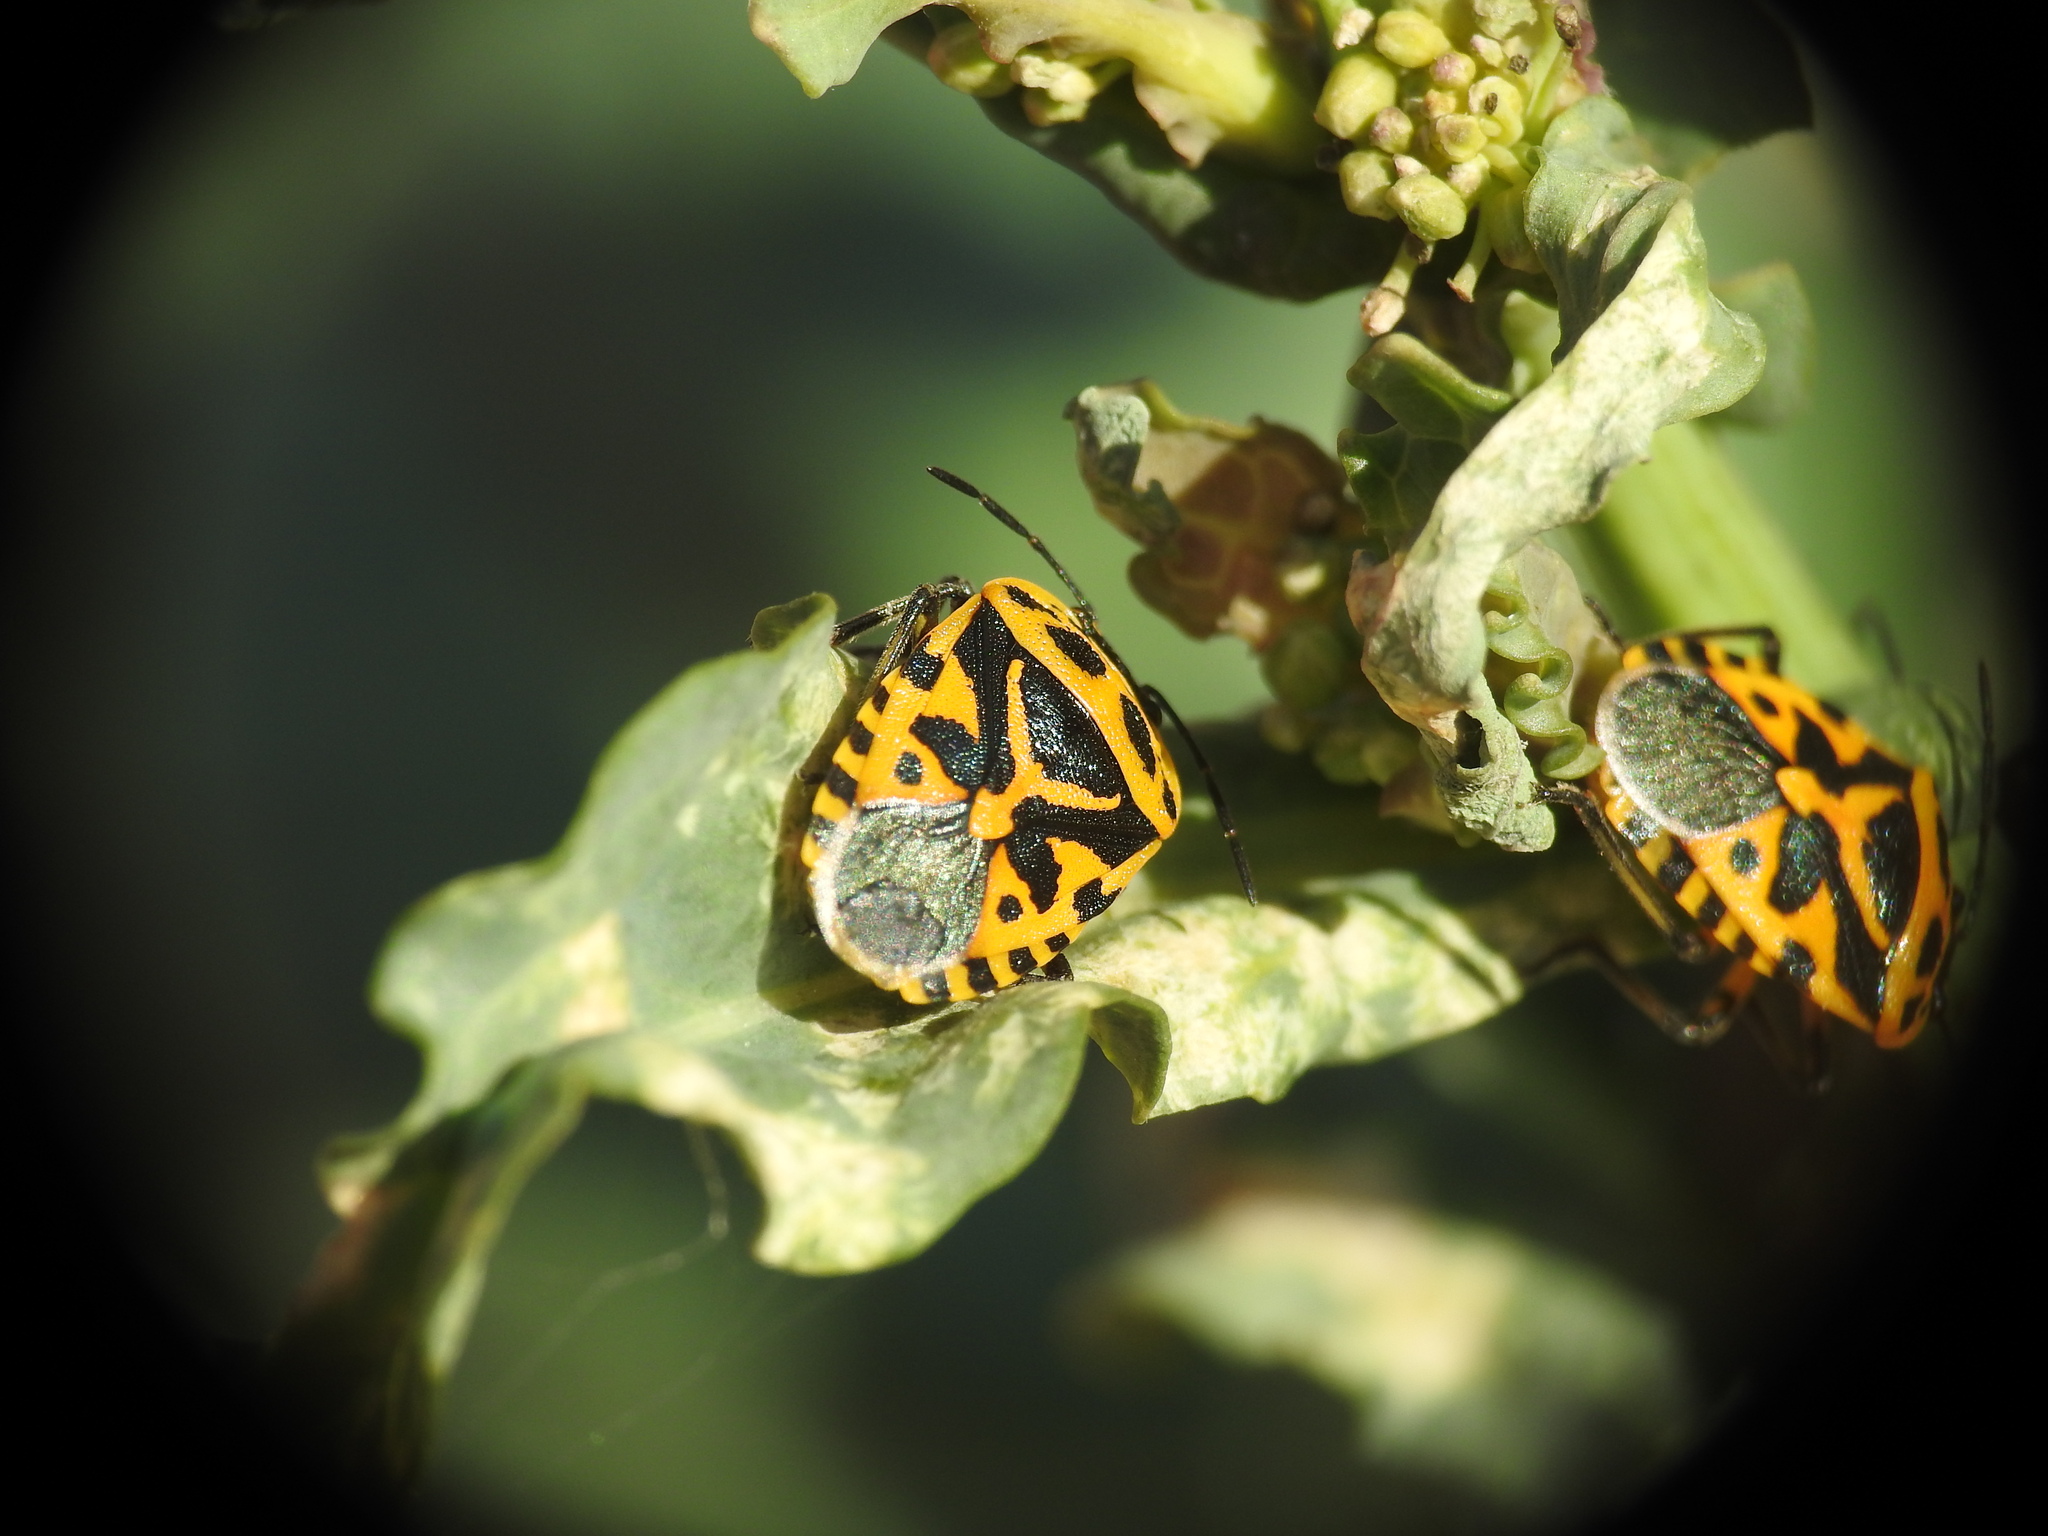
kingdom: Animalia
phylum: Arthropoda
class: Insecta
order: Hemiptera
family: Pentatomidae
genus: Eurydema
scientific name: Eurydema ventralis
